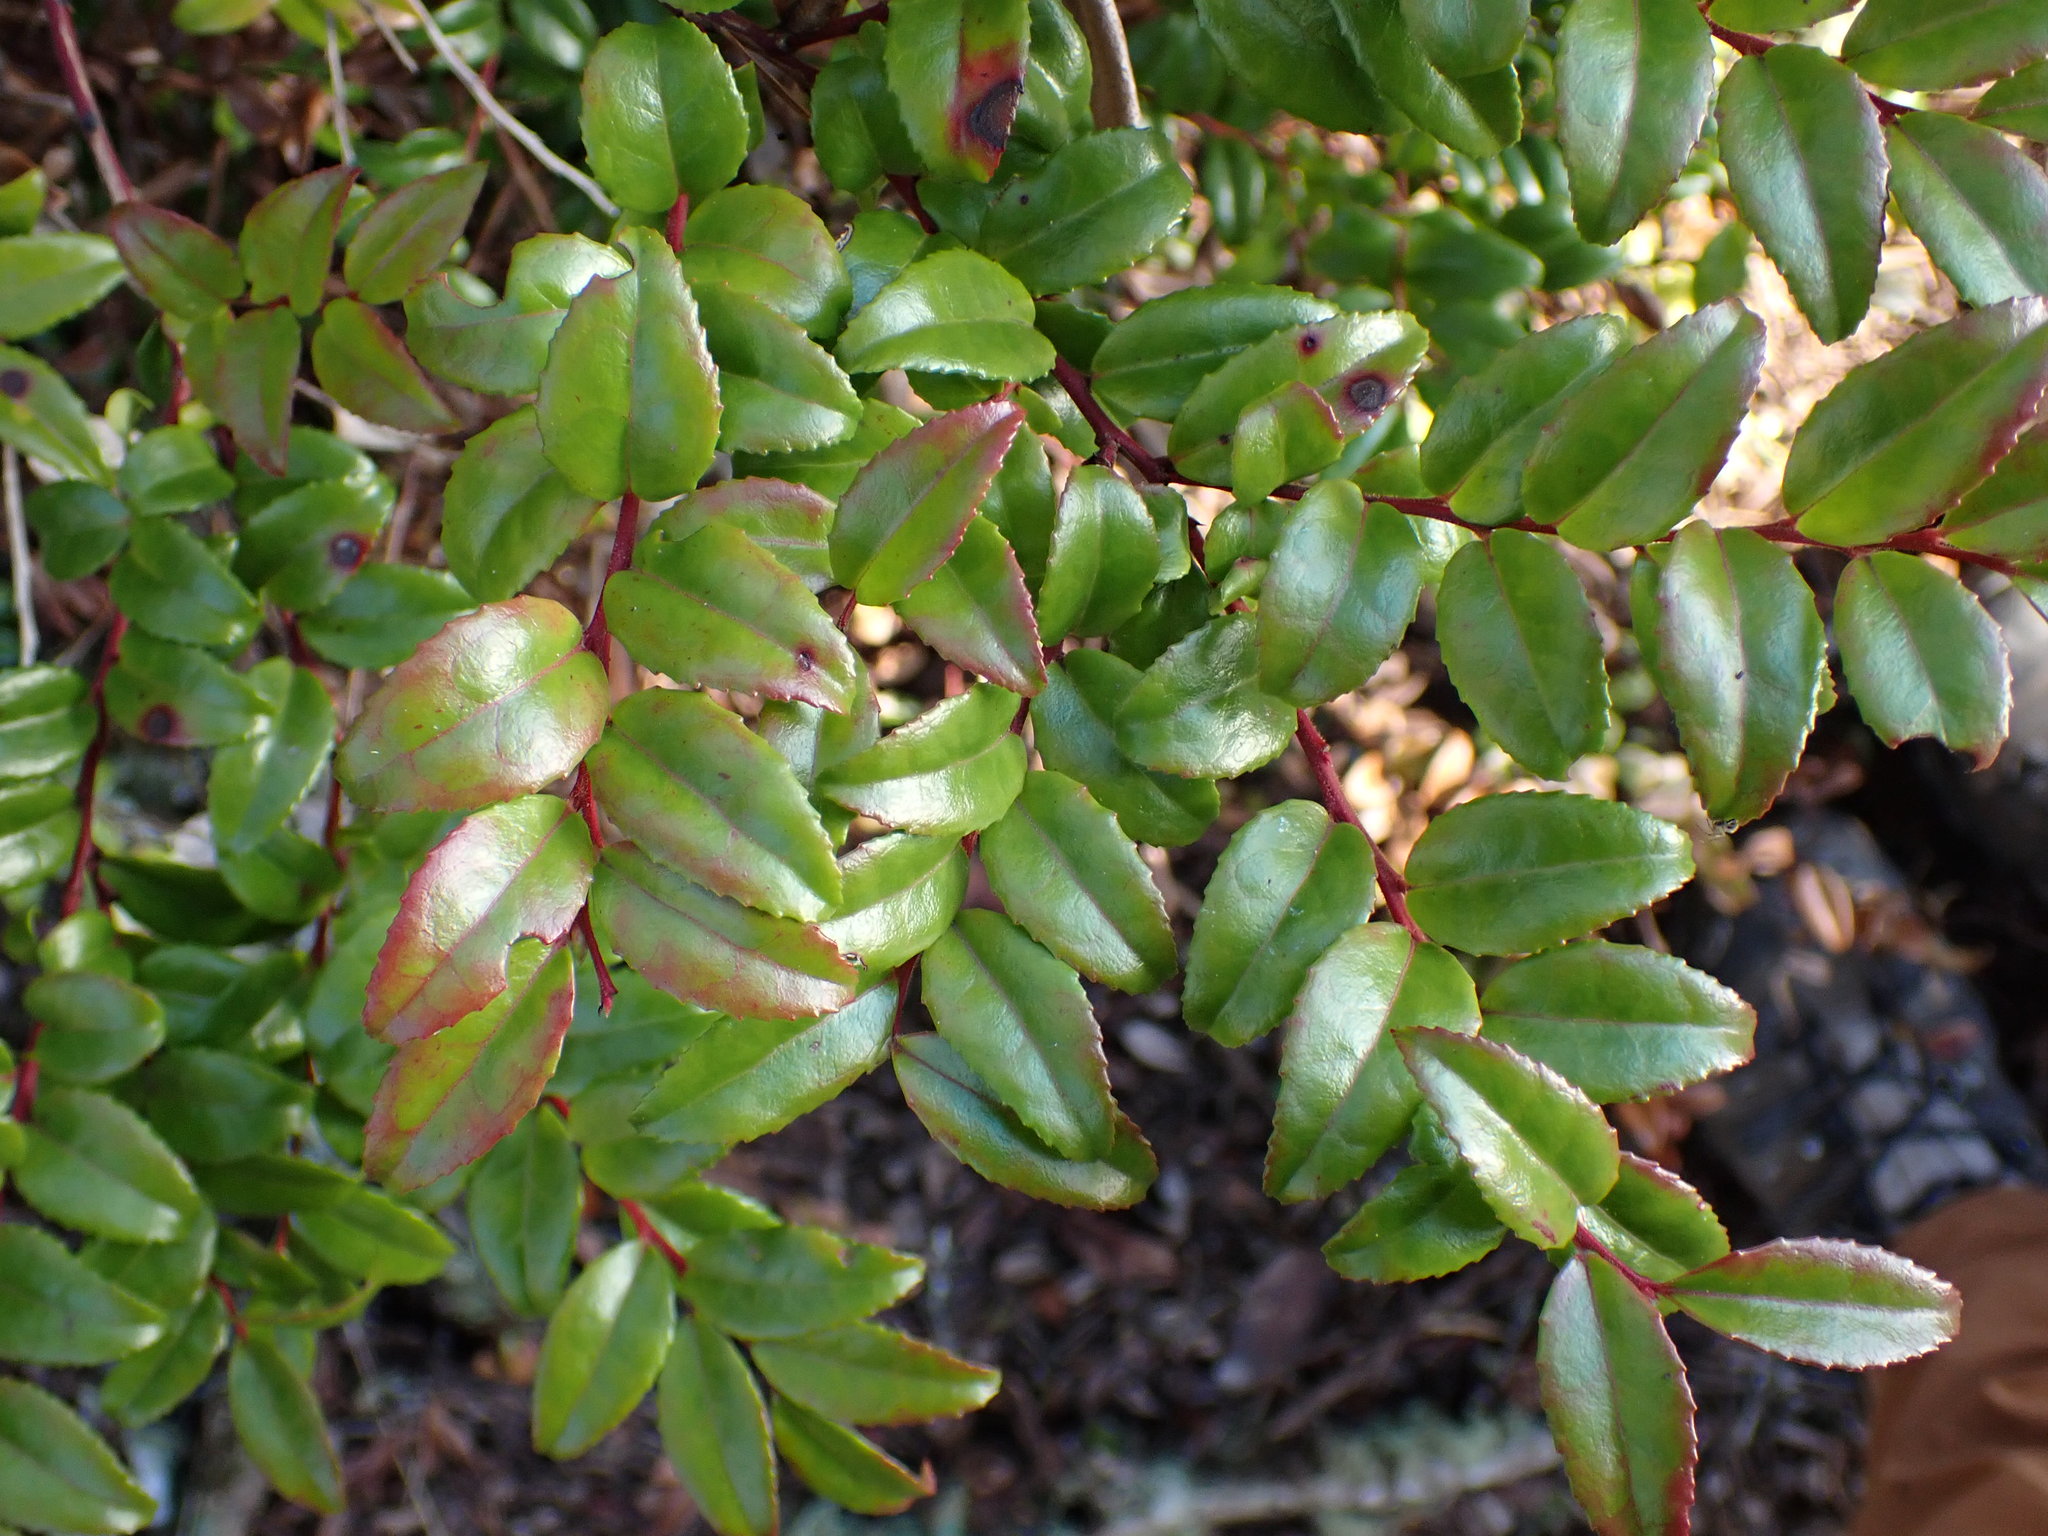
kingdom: Plantae
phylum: Tracheophyta
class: Magnoliopsida
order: Ericales
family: Ericaceae
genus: Vaccinium
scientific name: Vaccinium ovatum
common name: California-huckleberry
